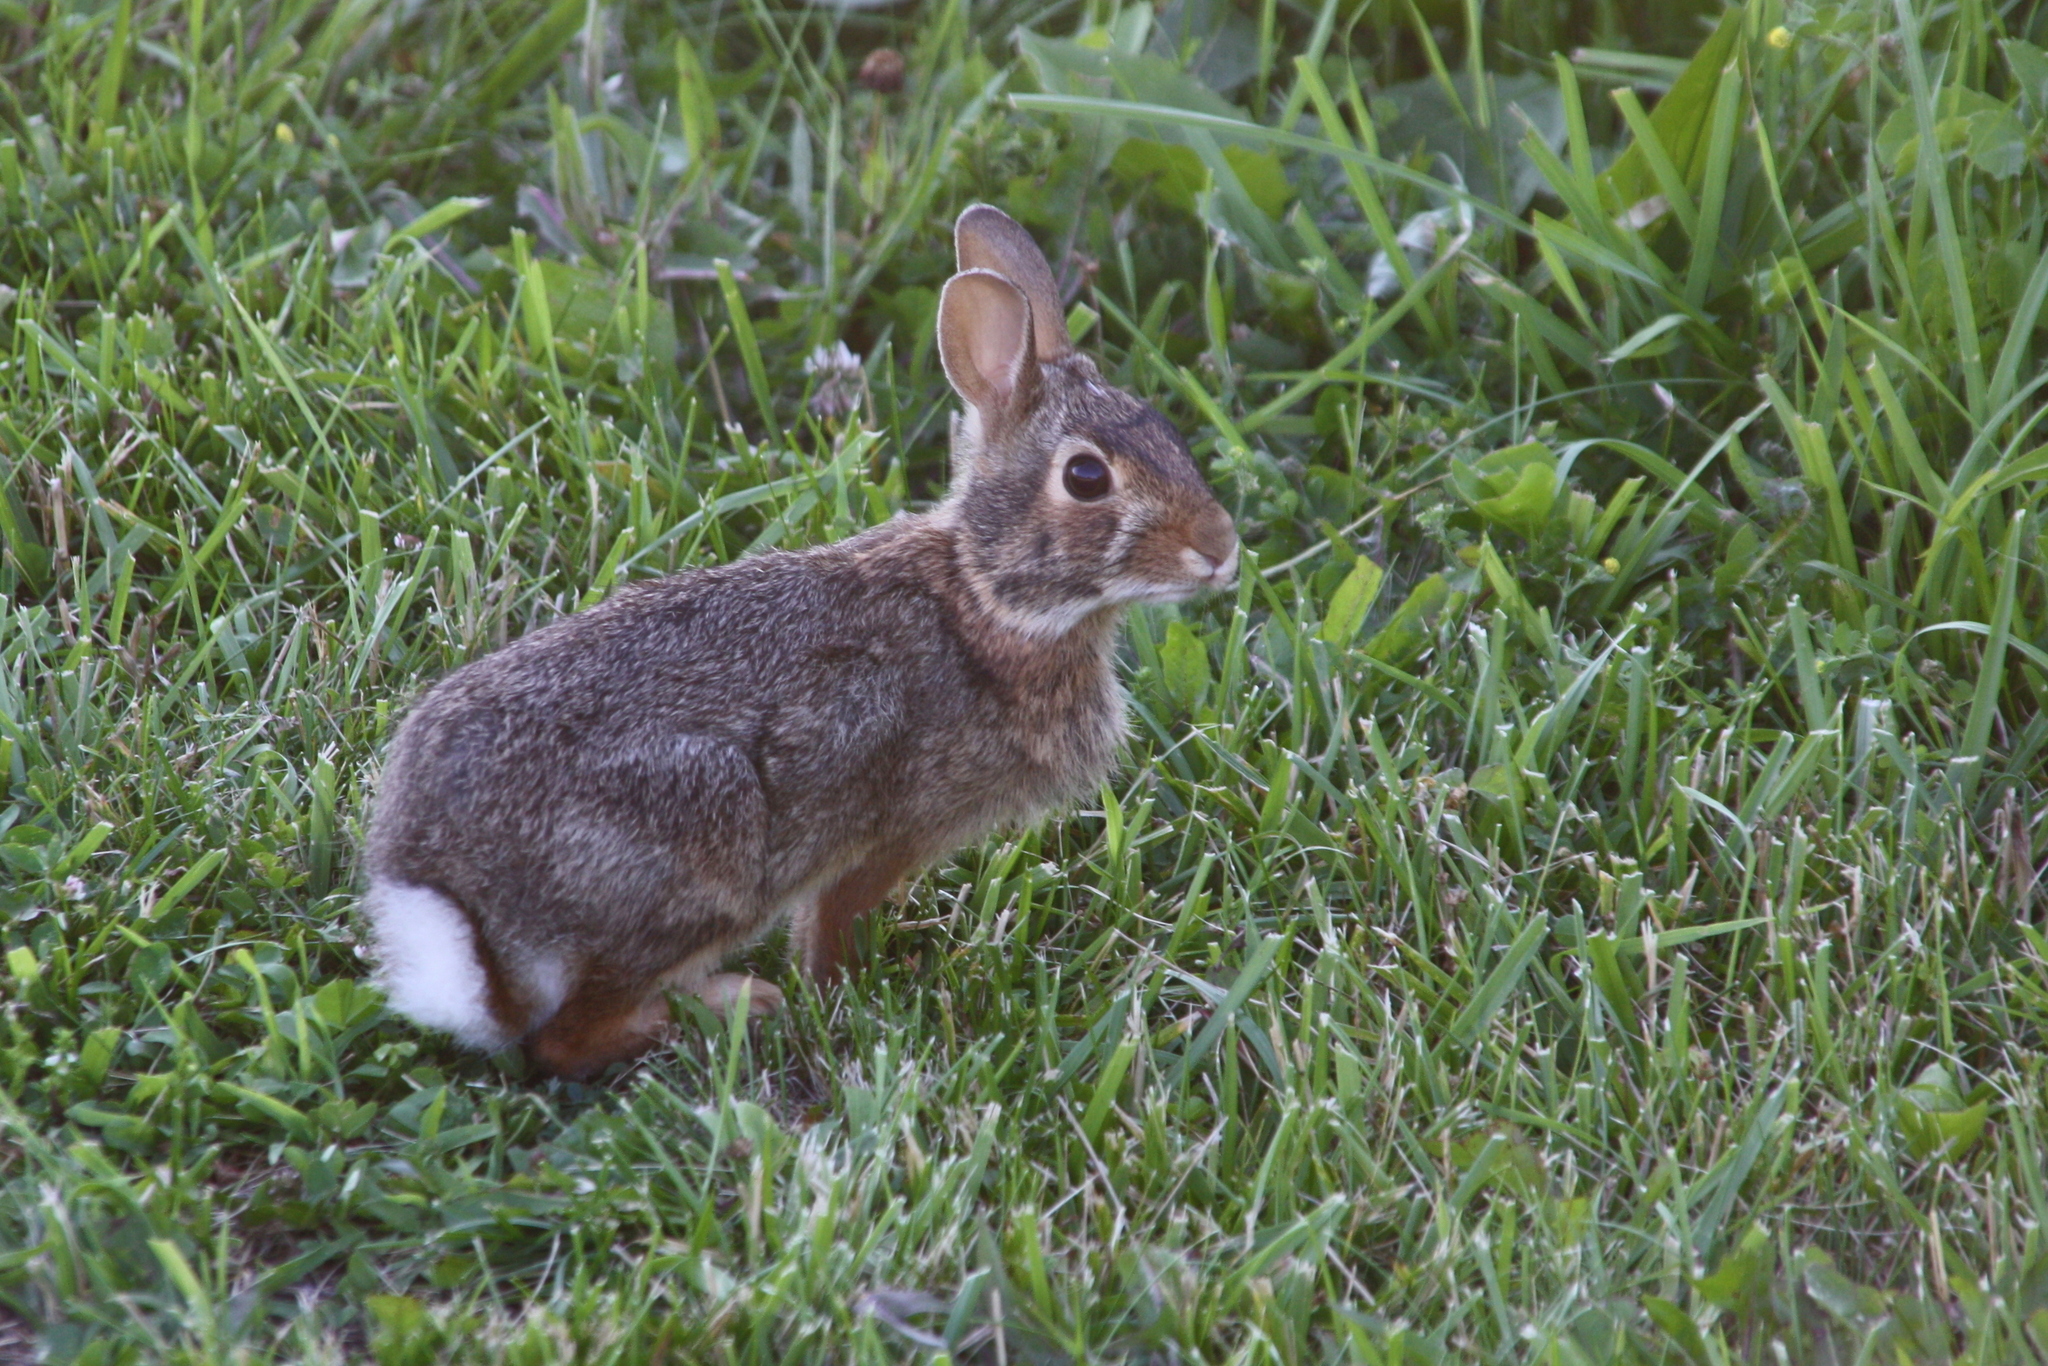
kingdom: Animalia
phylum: Chordata
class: Mammalia
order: Lagomorpha
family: Leporidae
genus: Sylvilagus
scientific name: Sylvilagus floridanus
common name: Eastern cottontail
